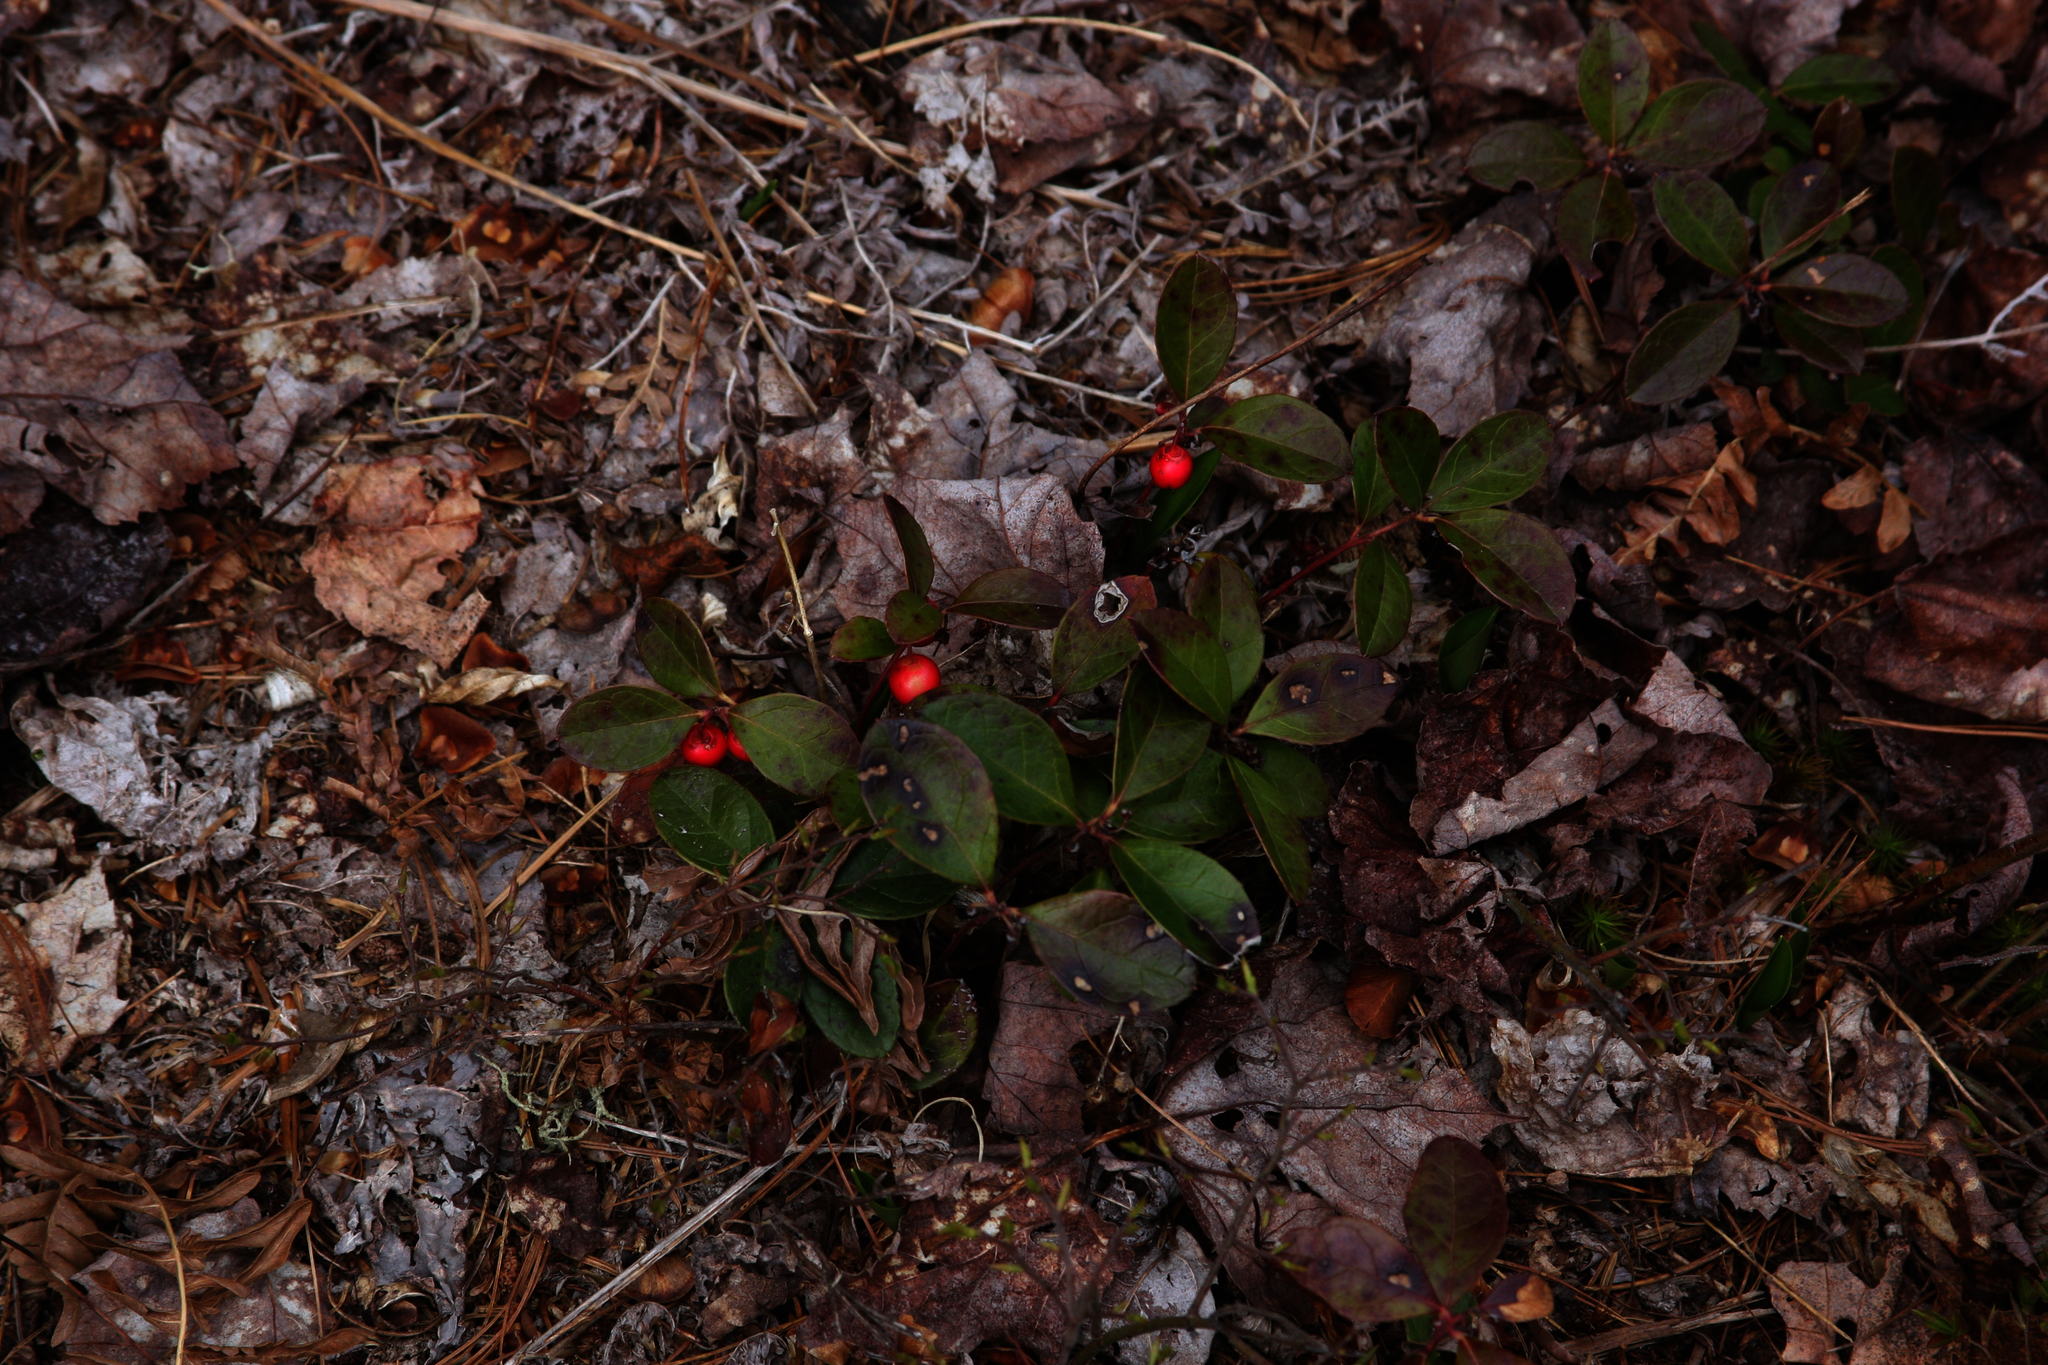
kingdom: Plantae
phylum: Tracheophyta
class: Magnoliopsida
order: Ericales
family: Ericaceae
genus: Gaultheria
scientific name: Gaultheria procumbens
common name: Checkerberry
